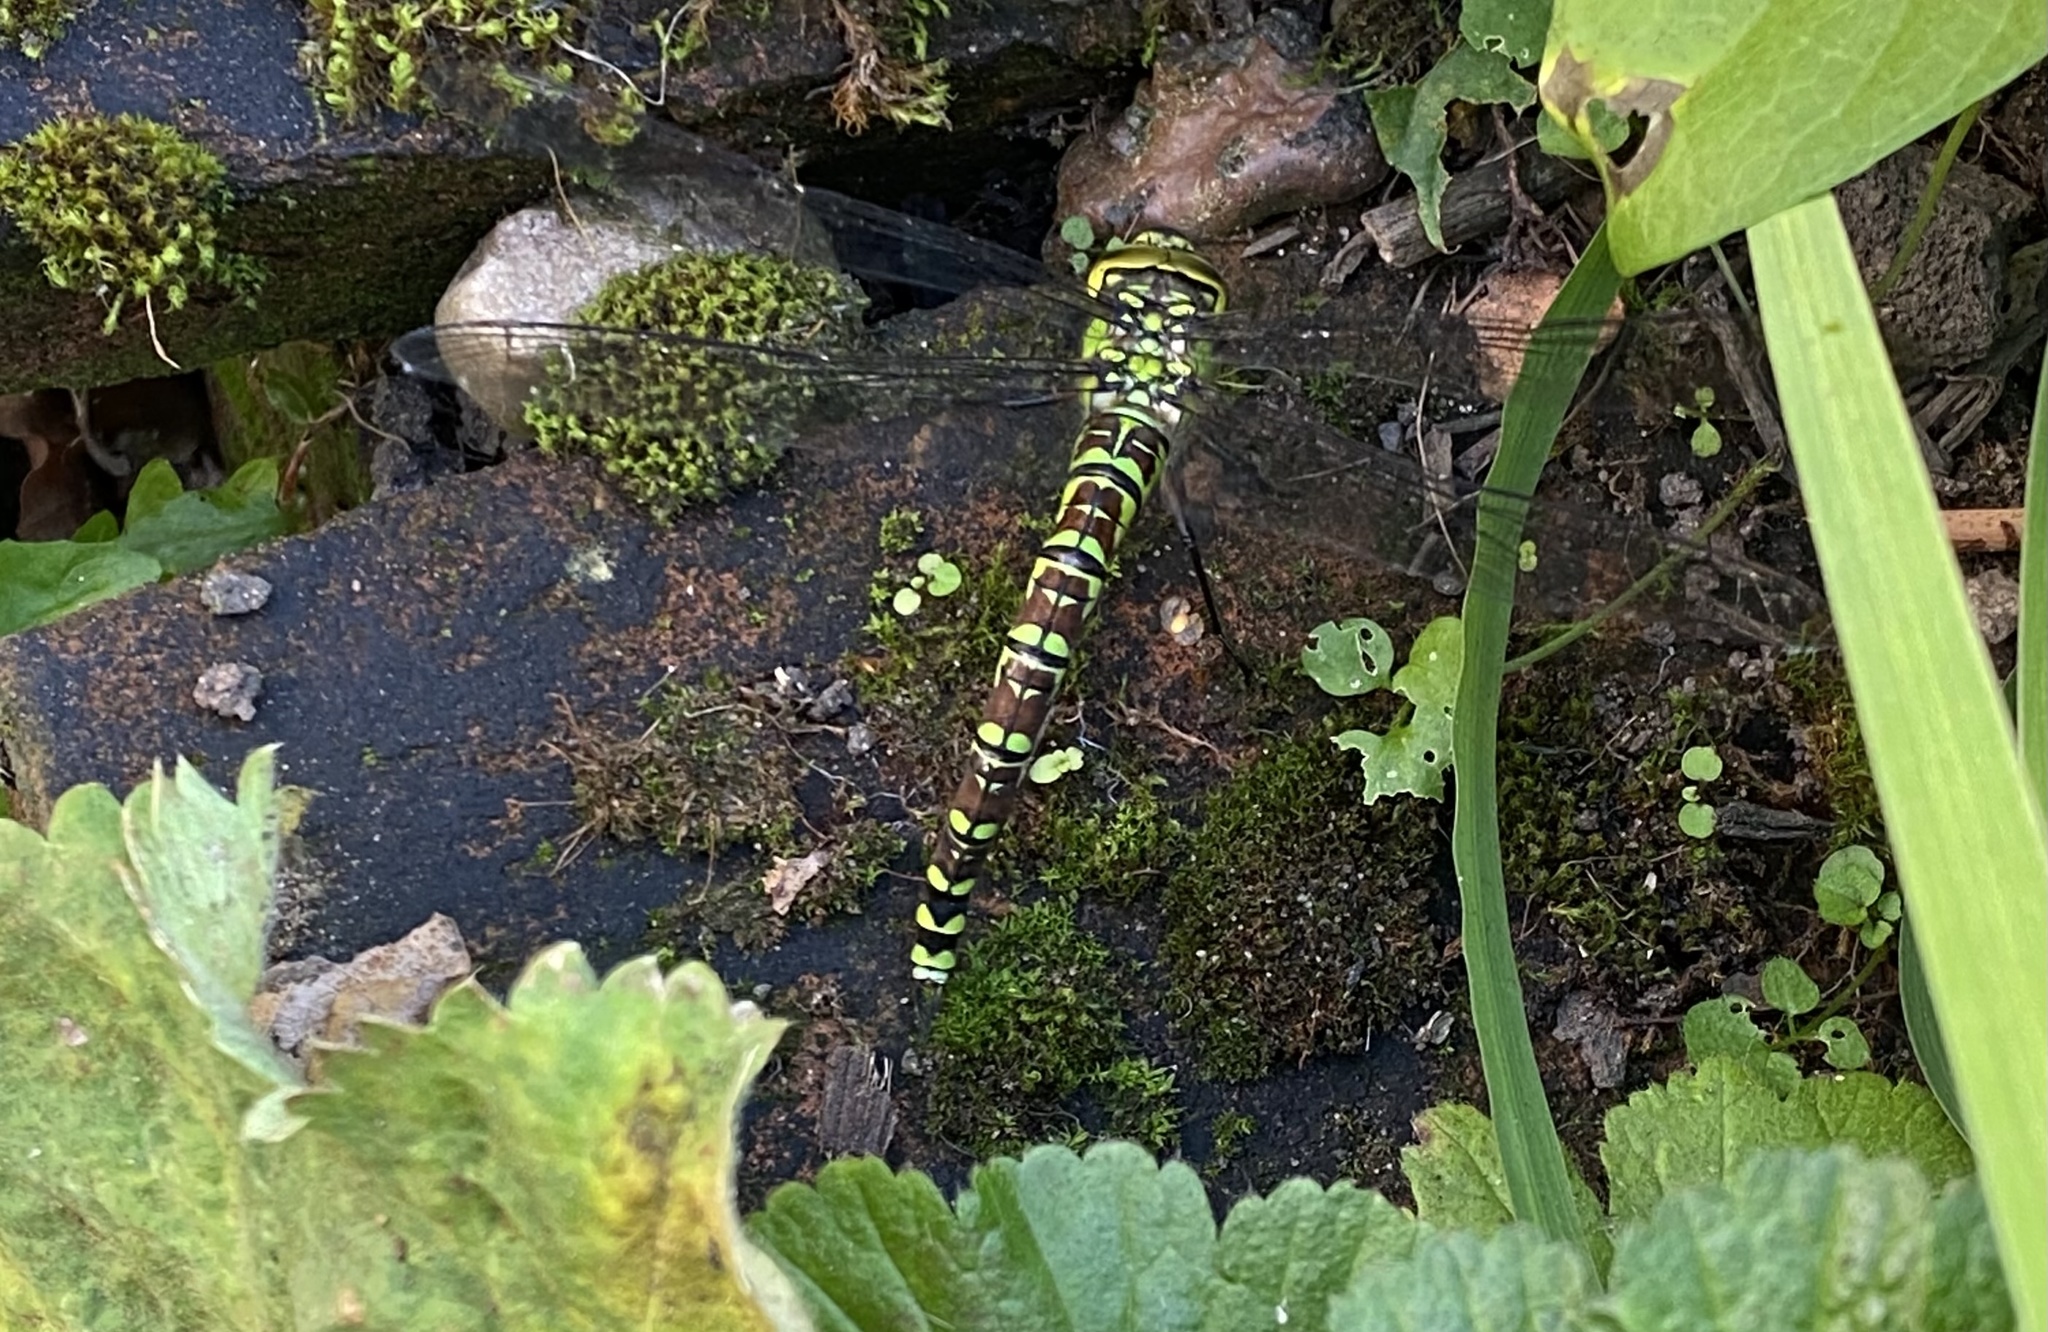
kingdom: Animalia
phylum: Arthropoda
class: Insecta
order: Odonata
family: Aeshnidae
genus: Aeshna
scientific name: Aeshna cyanea
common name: Southern hawker
